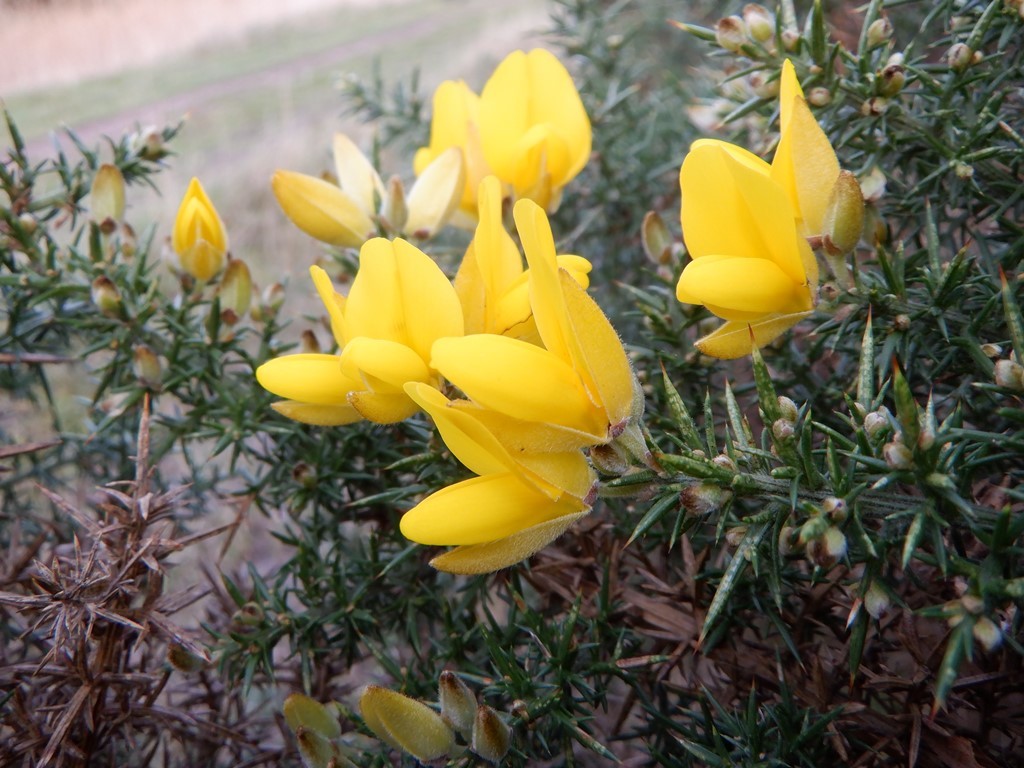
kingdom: Plantae
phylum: Tracheophyta
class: Magnoliopsida
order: Fabales
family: Fabaceae
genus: Ulex
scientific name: Ulex europaeus
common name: Common gorse
